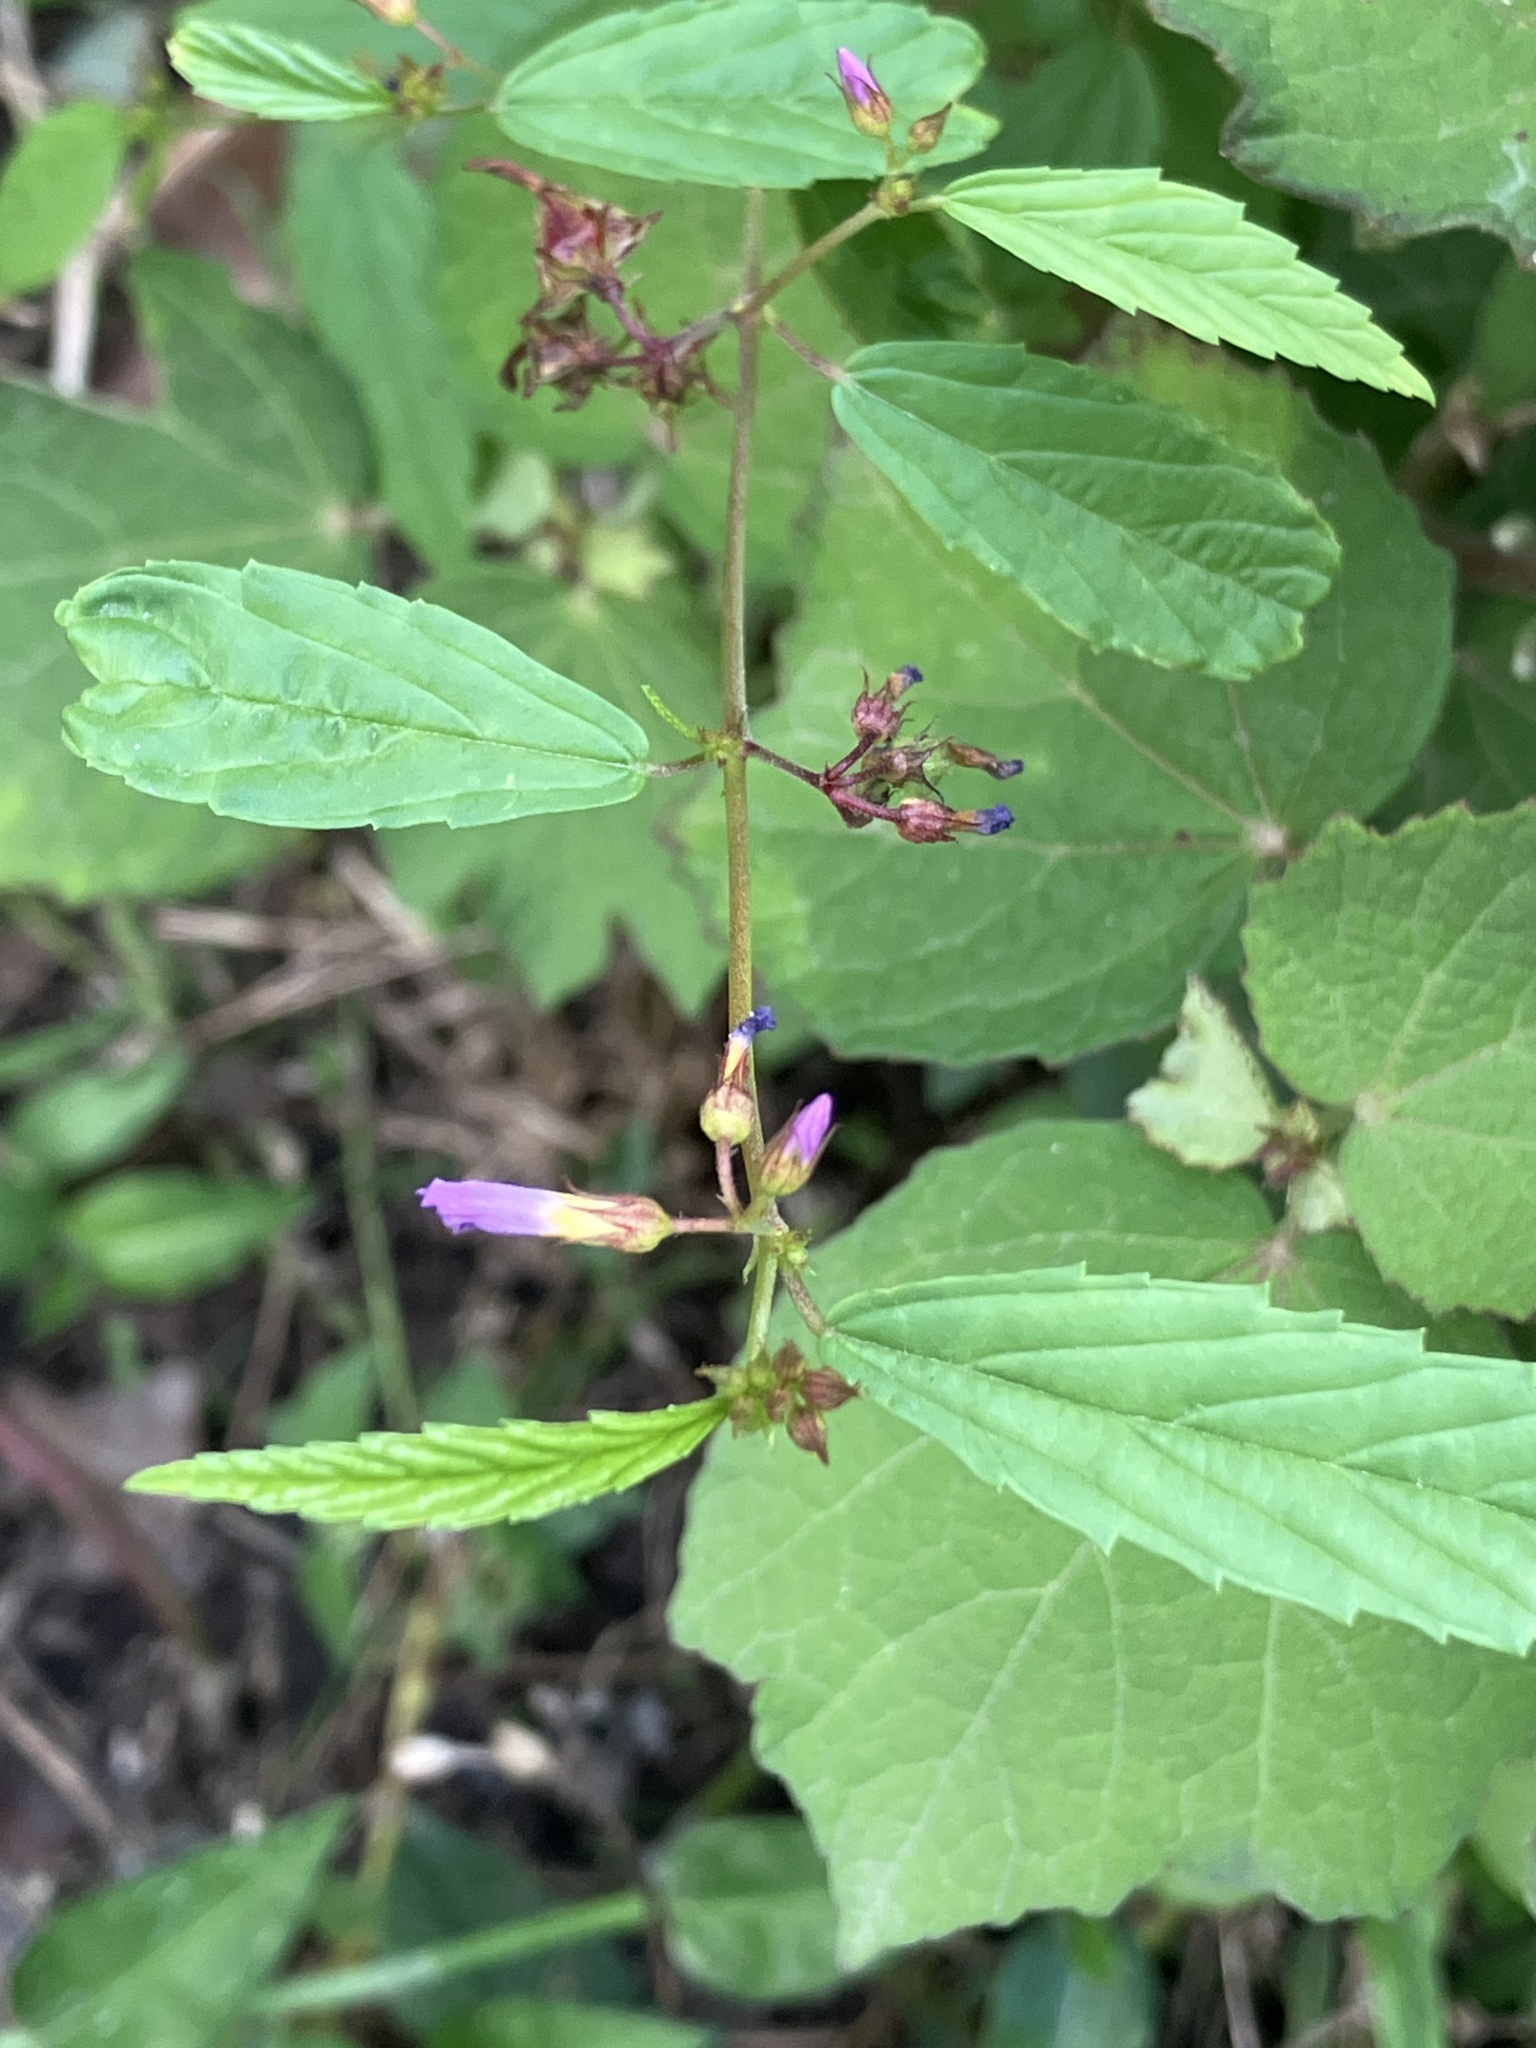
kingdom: Plantae
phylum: Tracheophyta
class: Magnoliopsida
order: Malvales
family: Malvaceae
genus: Melochia
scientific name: Melochia pyramidata
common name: Pyramidflower
